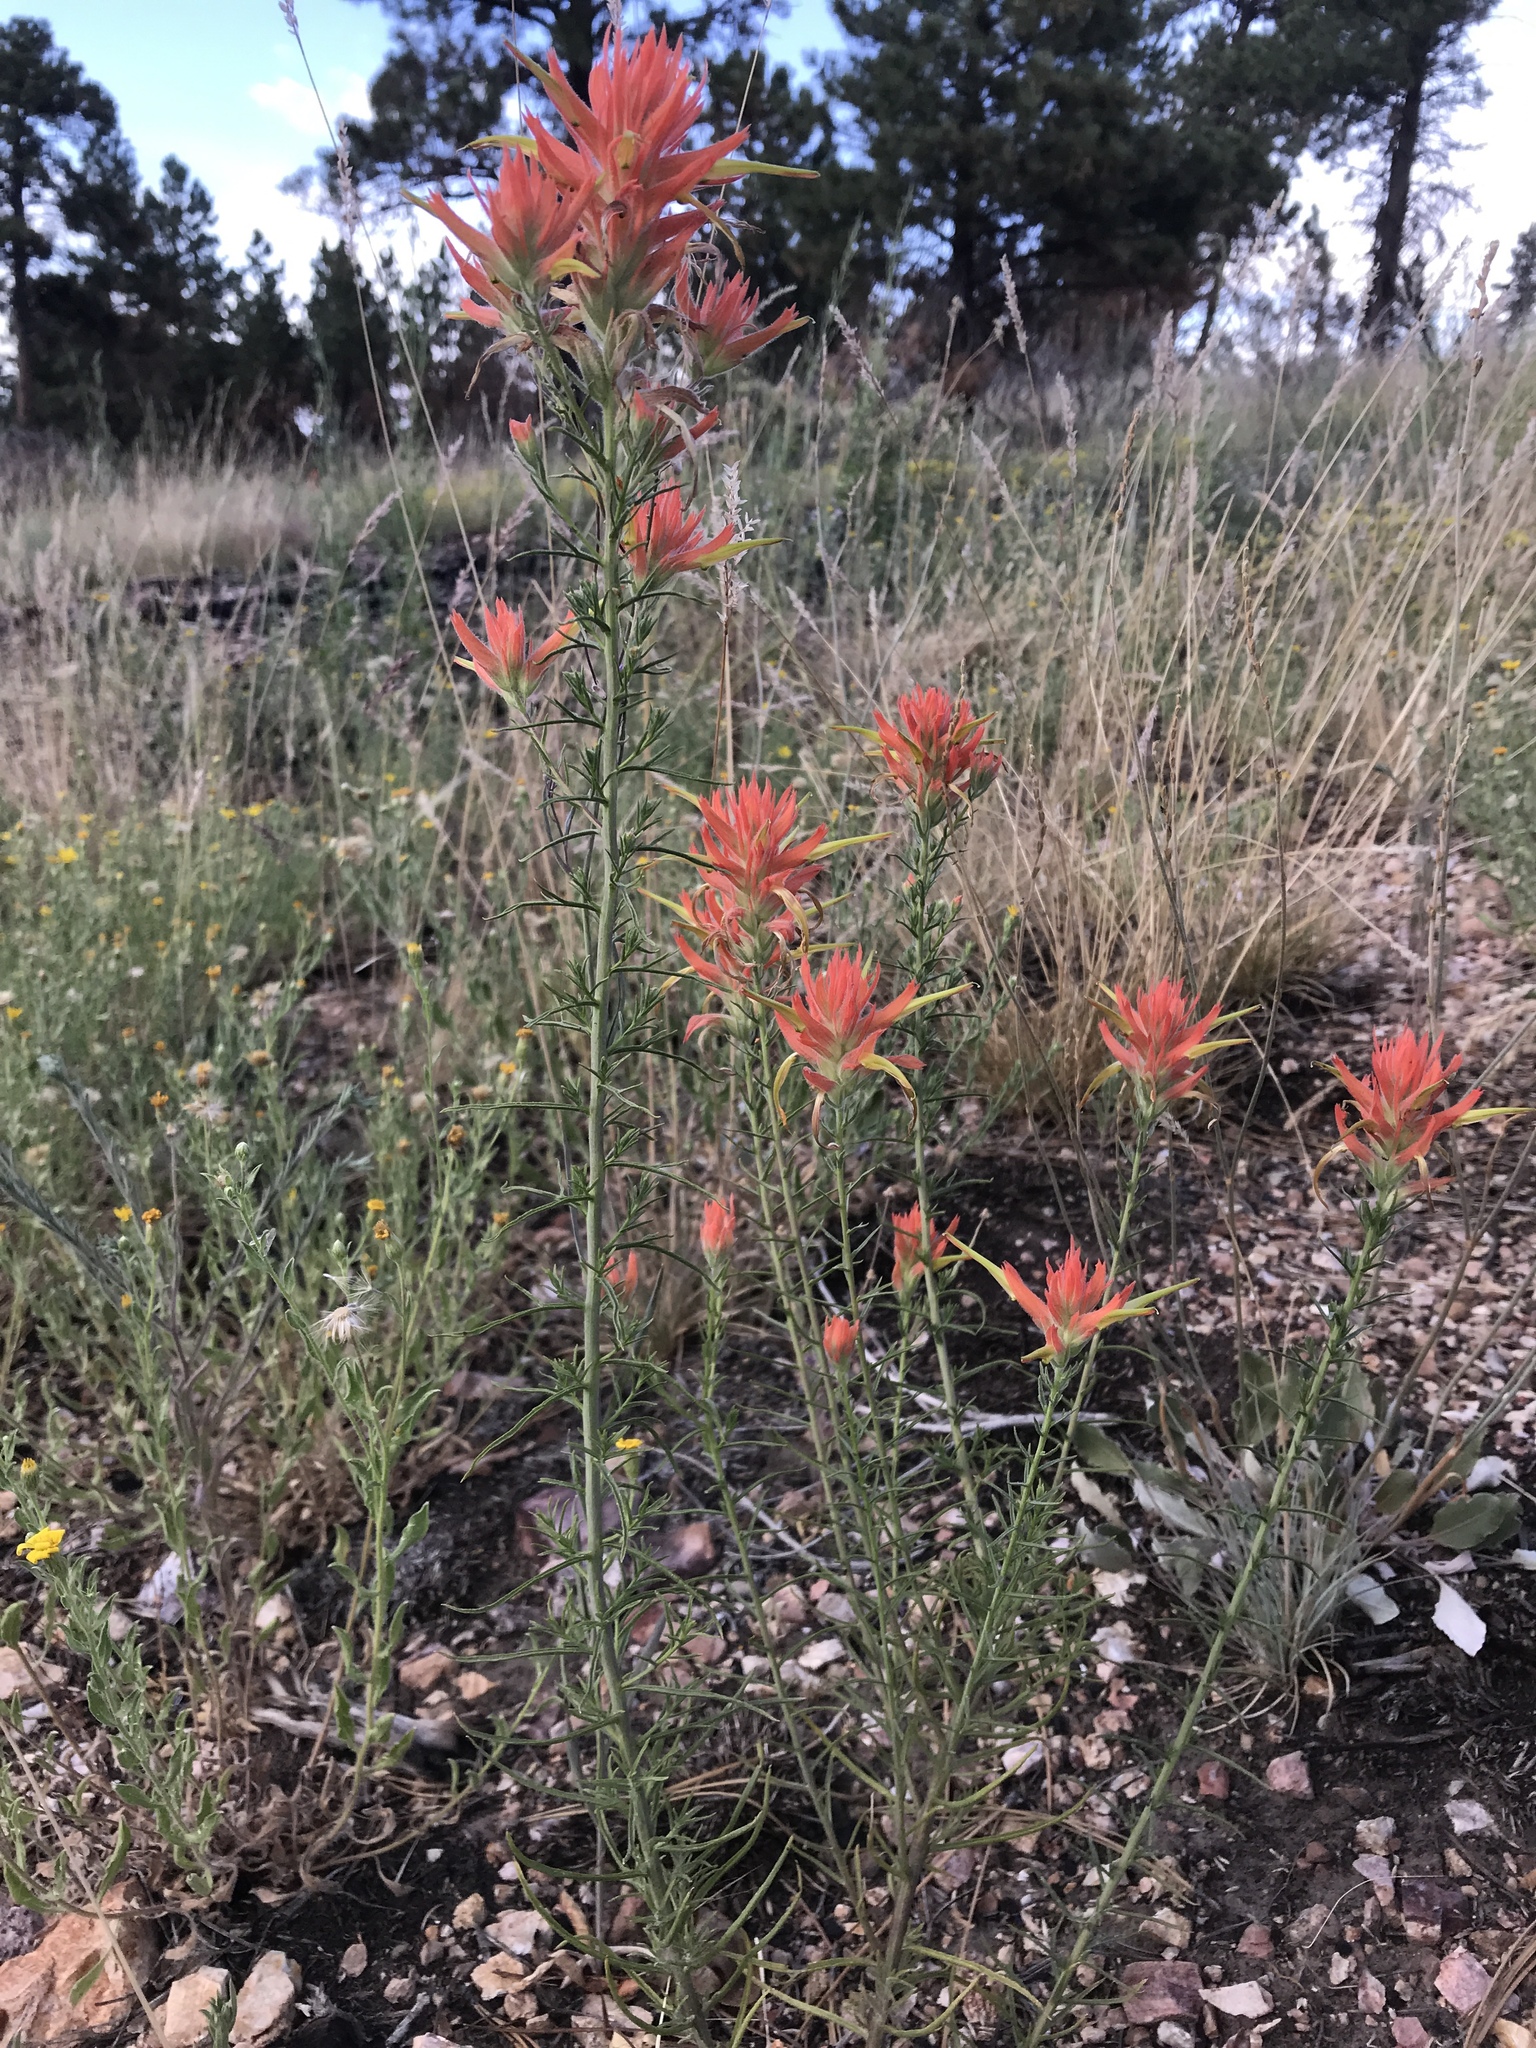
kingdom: Plantae
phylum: Tracheophyta
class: Magnoliopsida
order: Lamiales
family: Orobanchaceae
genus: Castilleja
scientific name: Castilleja linariifolia
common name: Wyoming paintbrush
